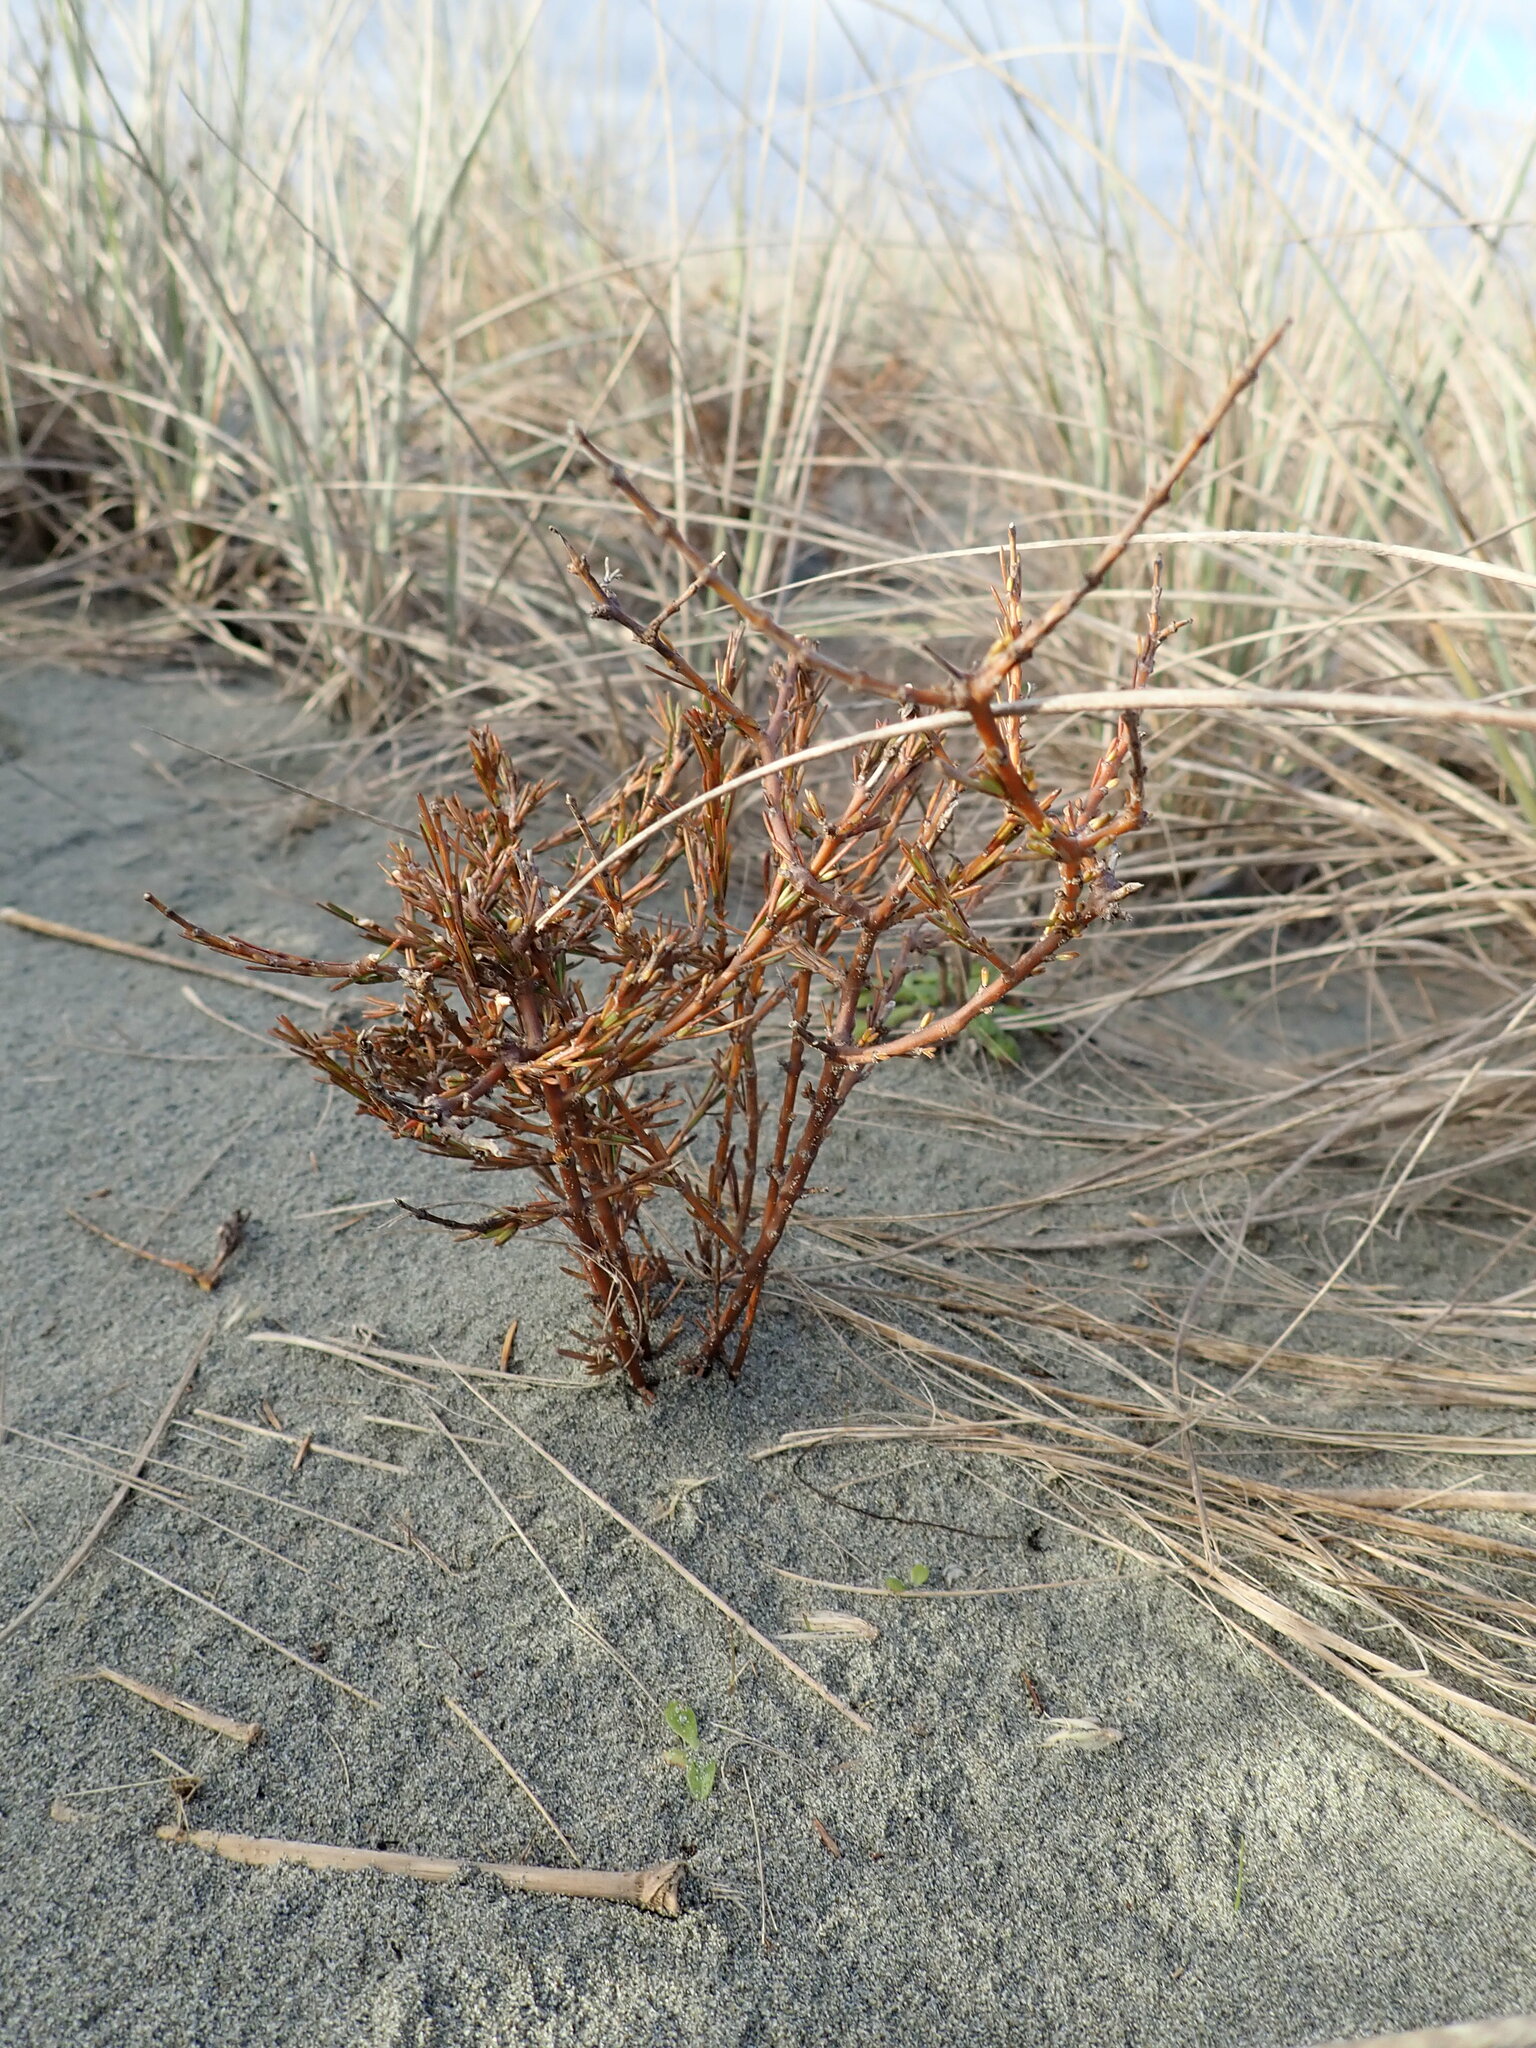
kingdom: Plantae
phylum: Tracheophyta
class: Magnoliopsida
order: Gentianales
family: Rubiaceae
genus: Coprosma
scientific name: Coprosma acerosa
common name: Sand coprosma
